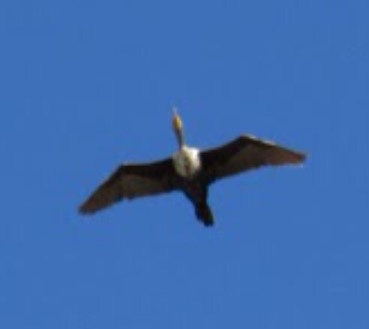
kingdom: Animalia
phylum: Chordata
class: Aves
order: Suliformes
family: Phalacrocoracidae
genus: Phalacrocorax
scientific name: Phalacrocorax auritus
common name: Double-crested cormorant
